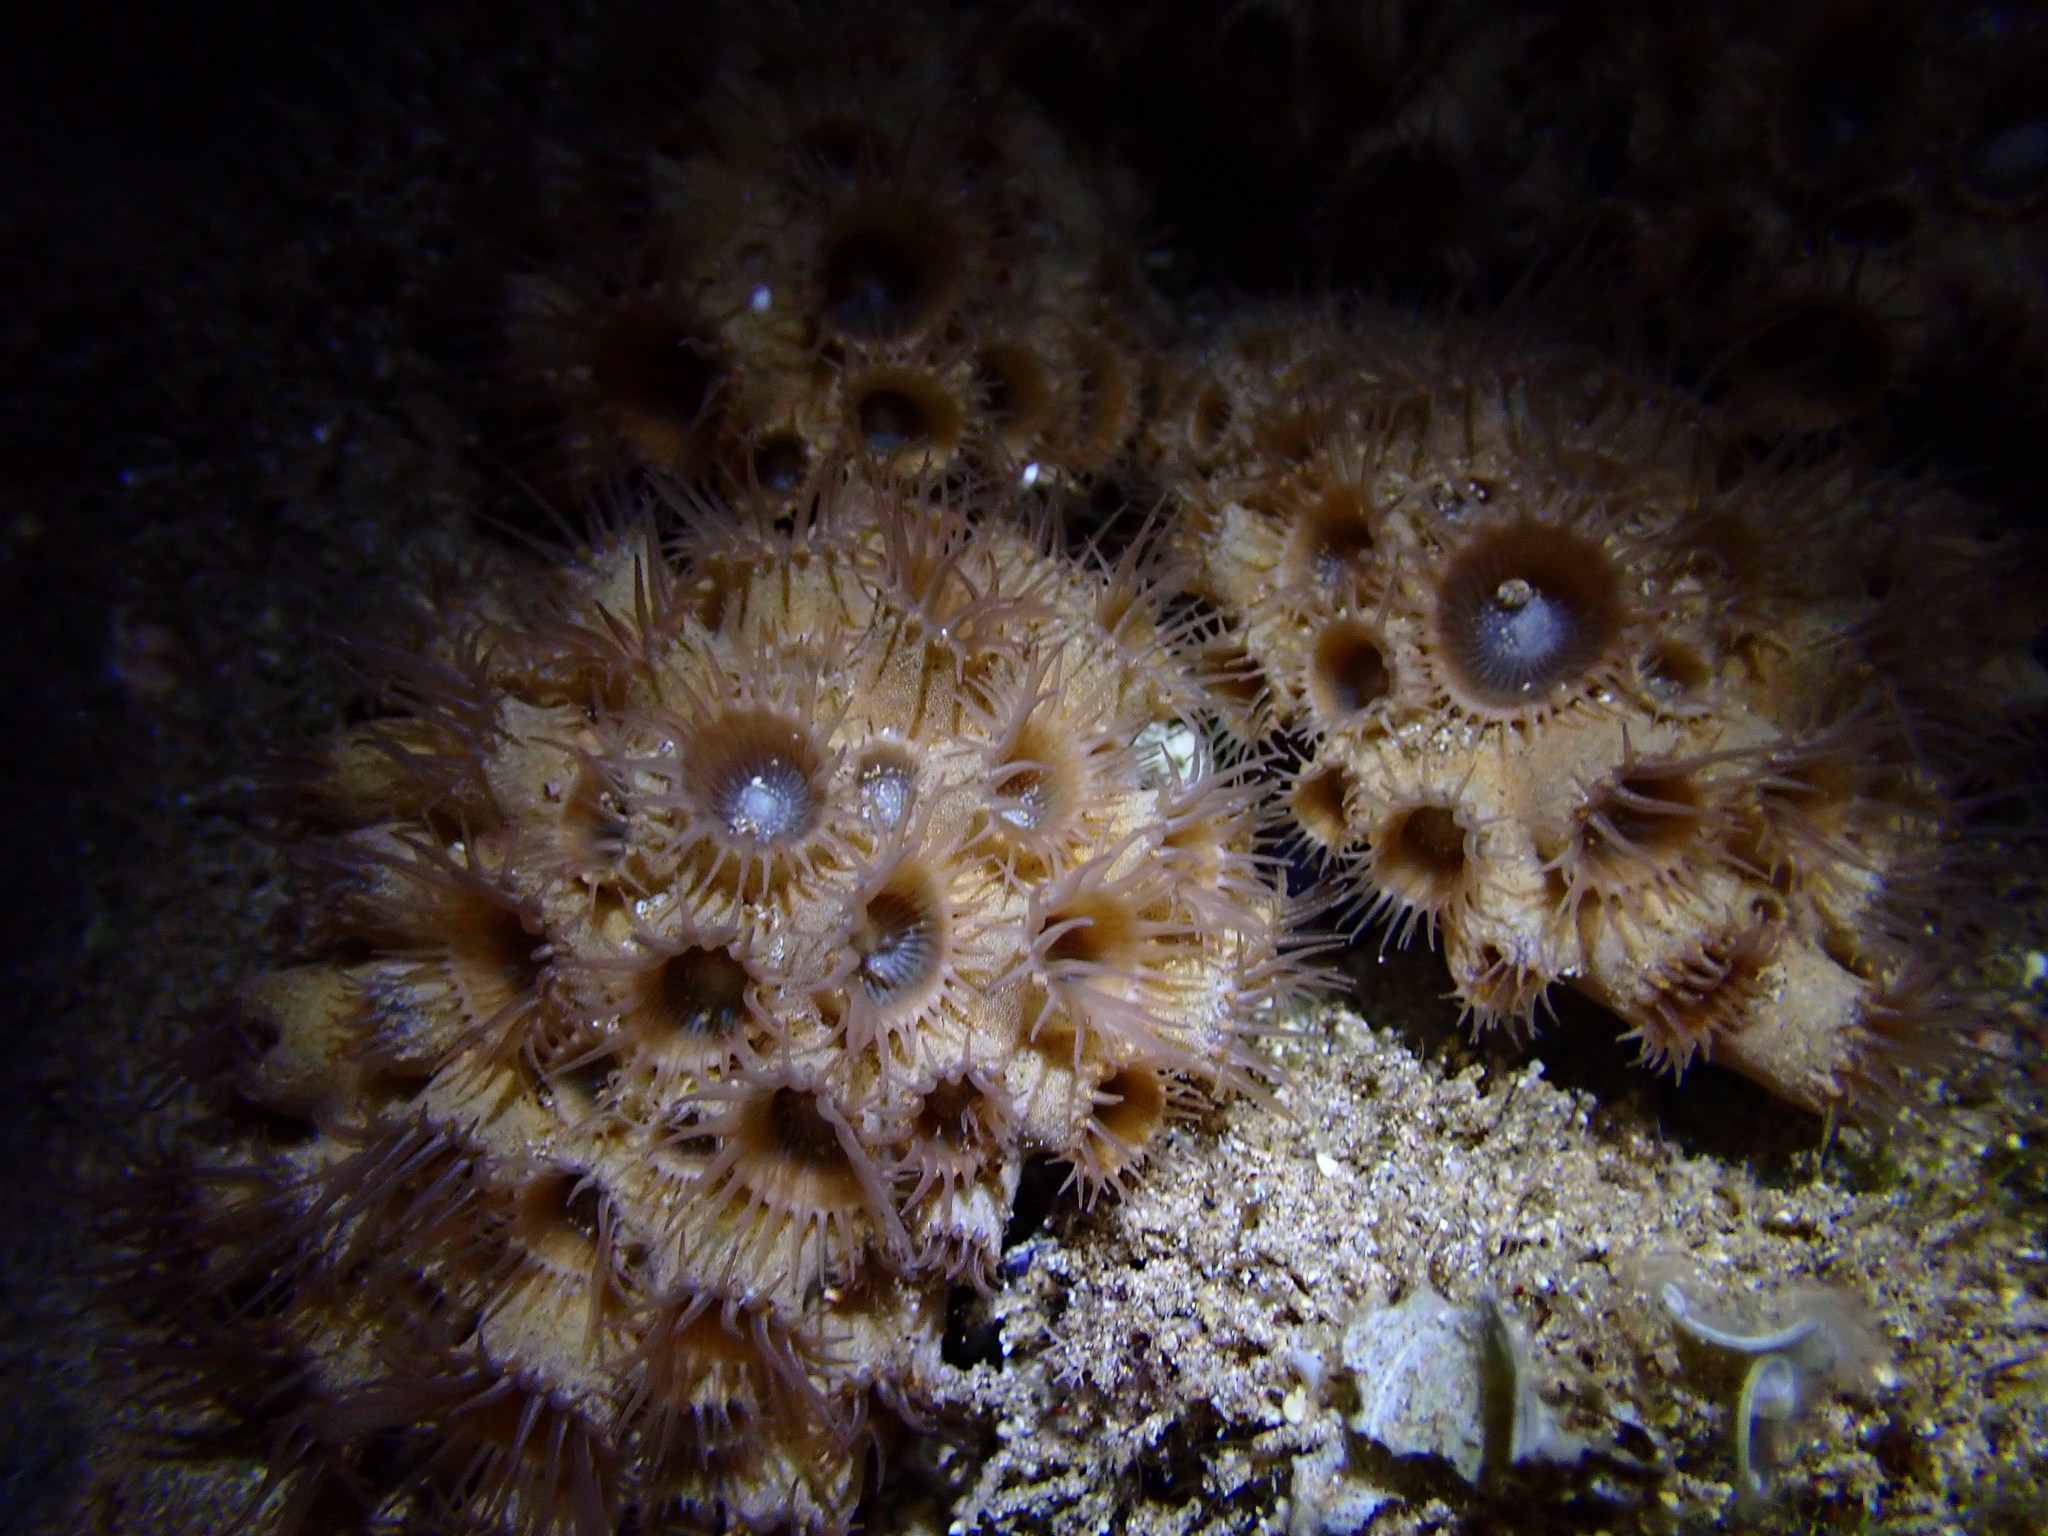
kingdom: Animalia
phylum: Cnidaria
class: Anthozoa
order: Zoantharia
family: Sphenopidae
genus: Palythoa
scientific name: Palythoa tuberculosa
